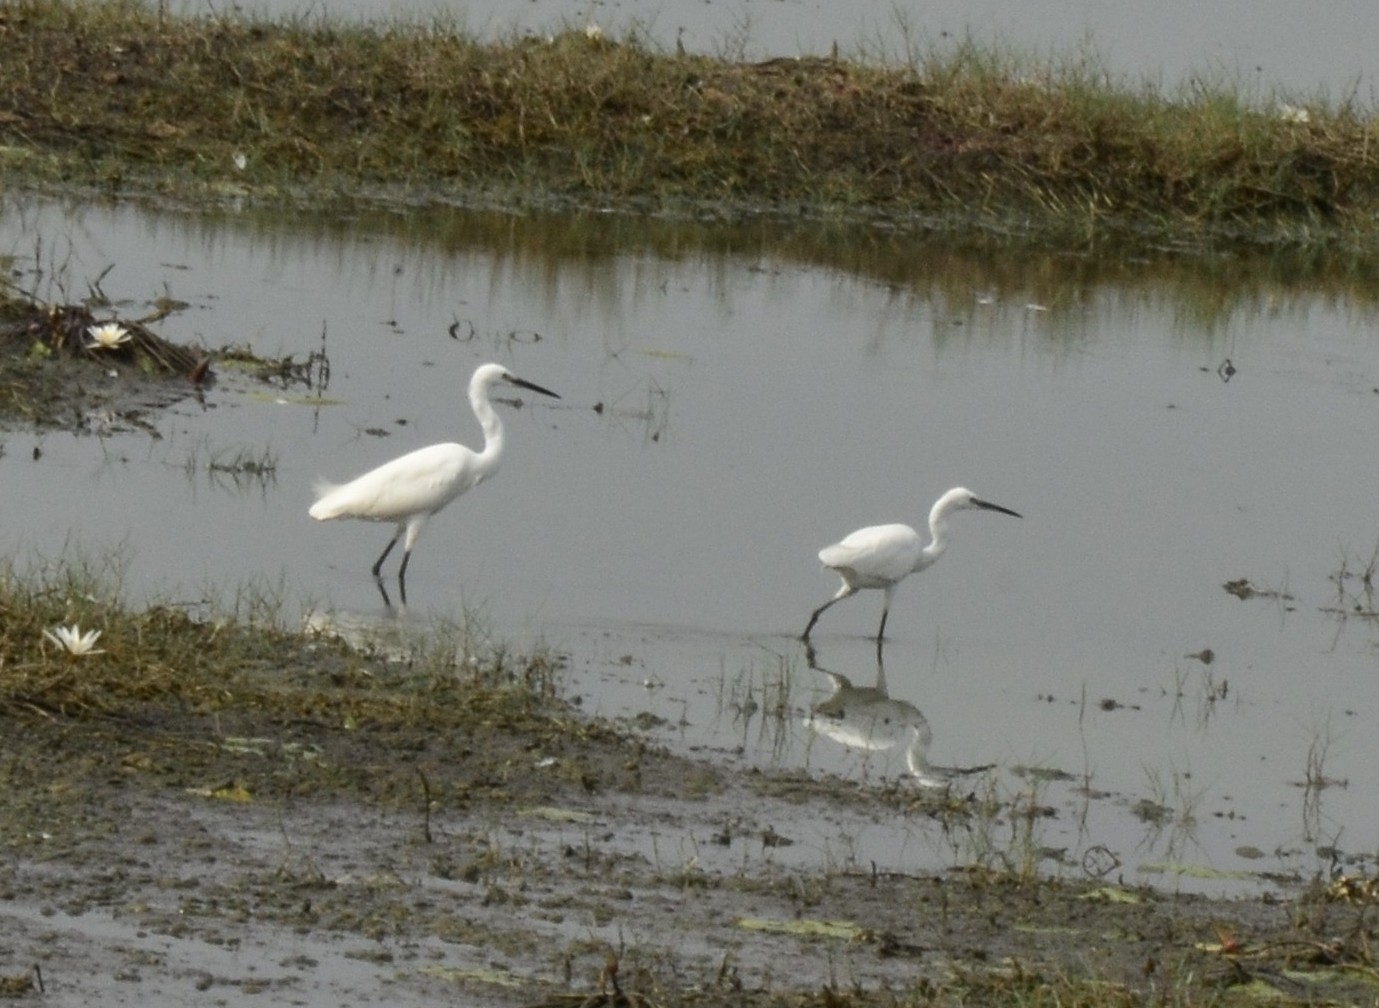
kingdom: Animalia
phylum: Chordata
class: Aves
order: Pelecaniformes
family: Ardeidae
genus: Egretta
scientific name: Egretta garzetta
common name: Little egret
